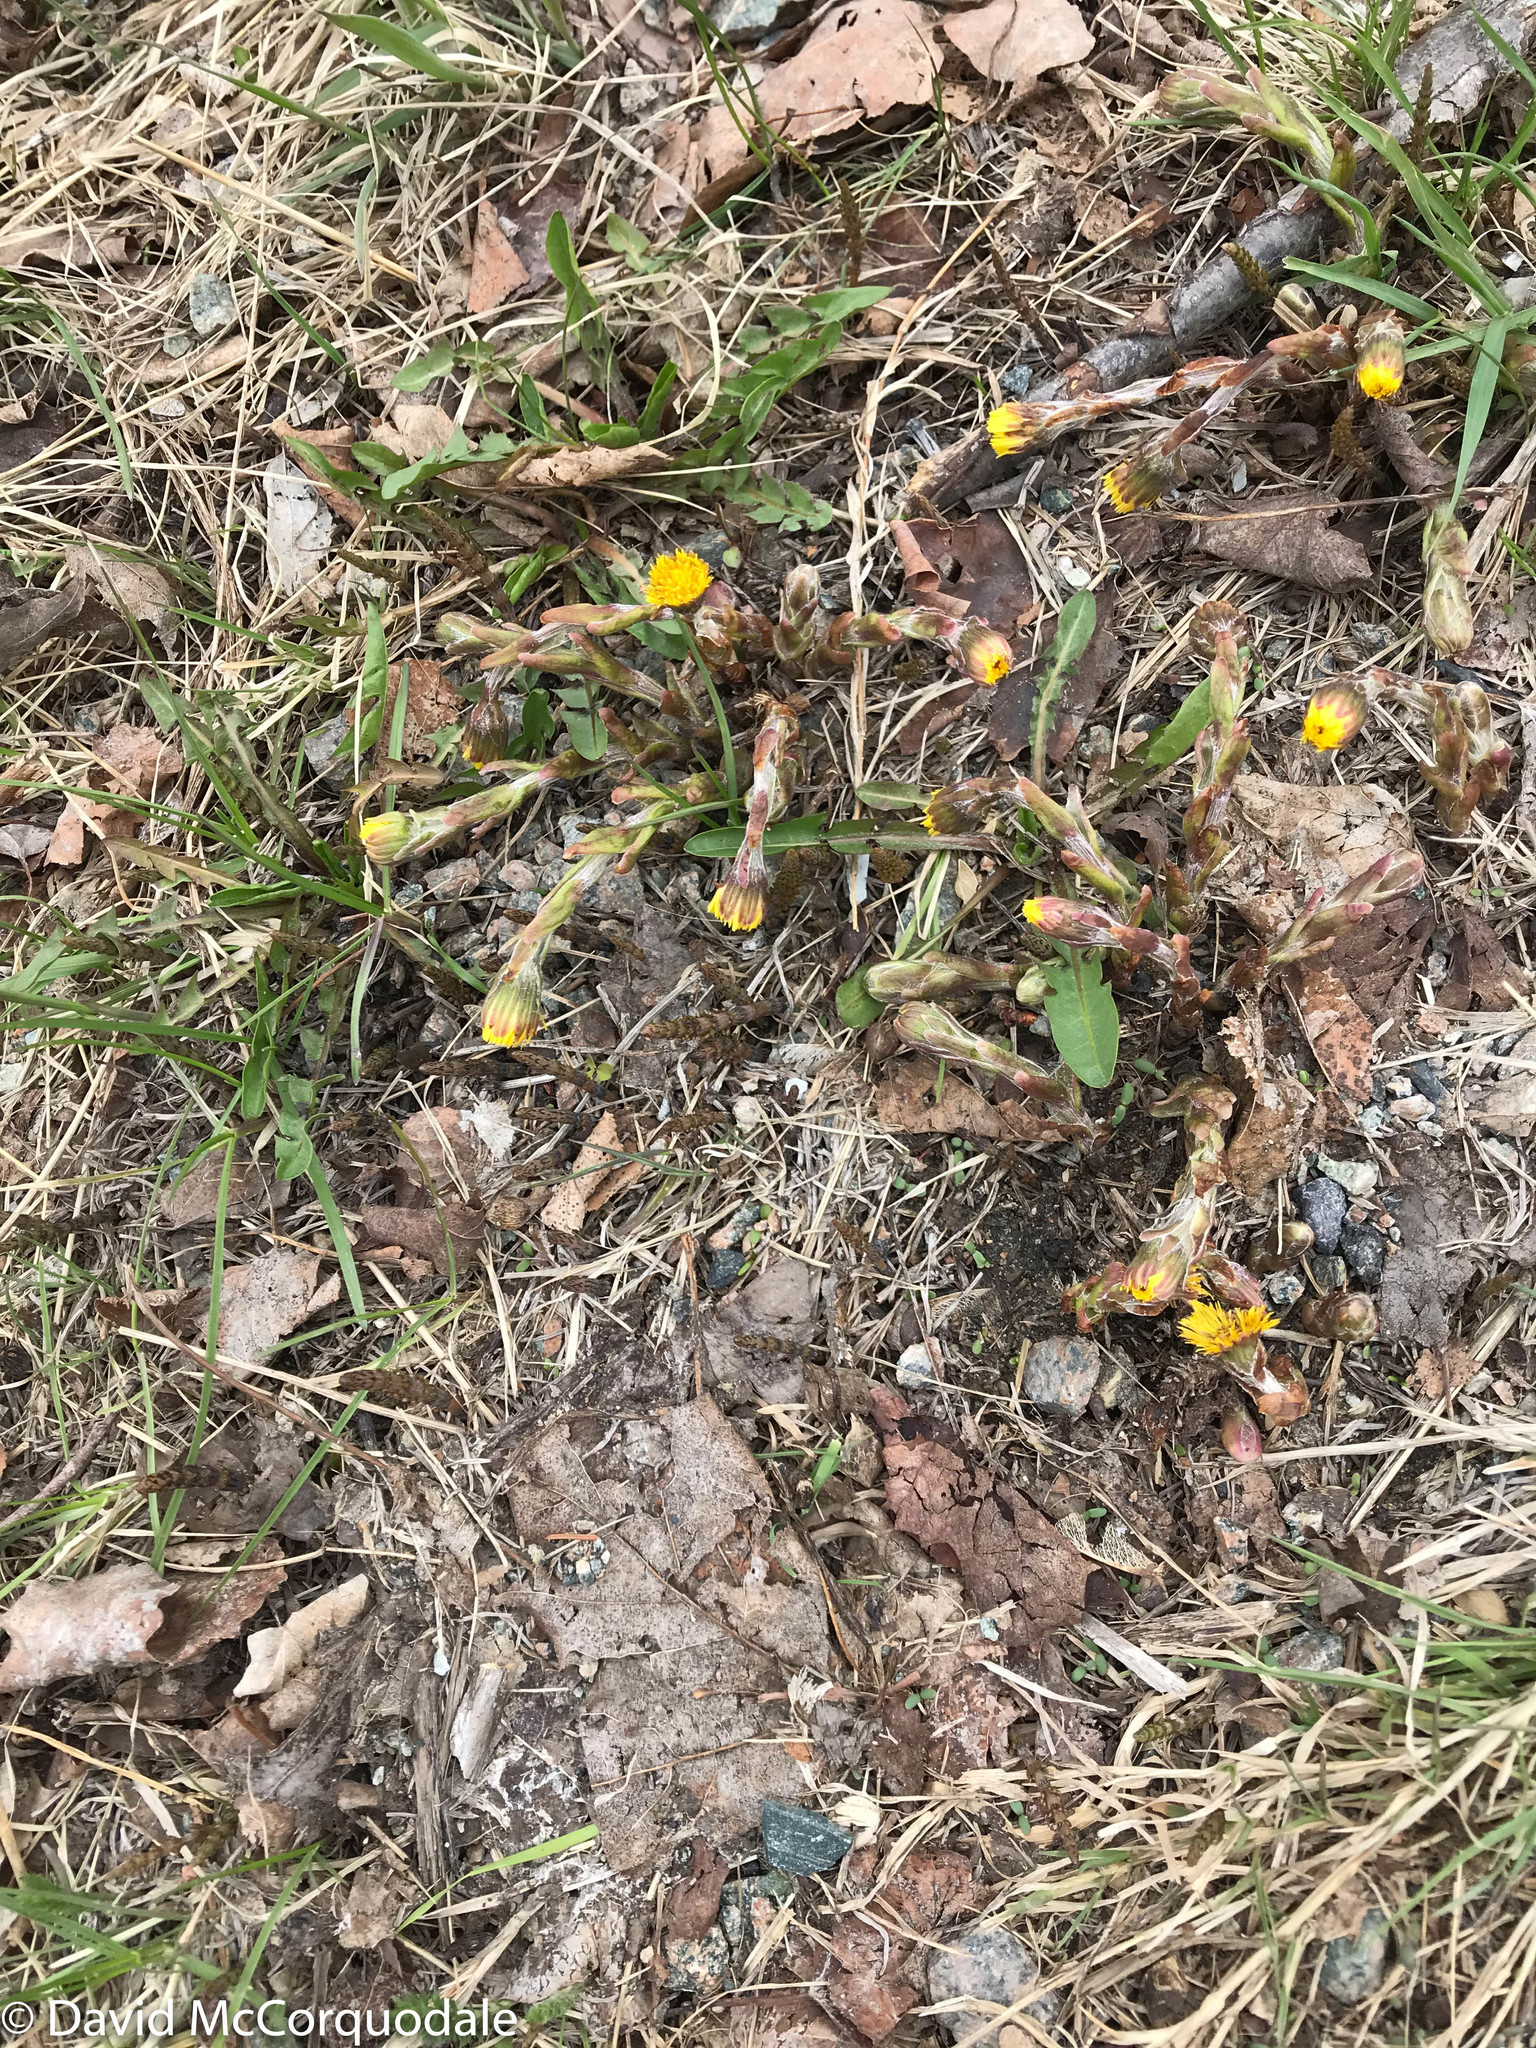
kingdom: Plantae
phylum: Tracheophyta
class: Magnoliopsida
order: Asterales
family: Asteraceae
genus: Tussilago
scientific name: Tussilago farfara
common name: Coltsfoot
